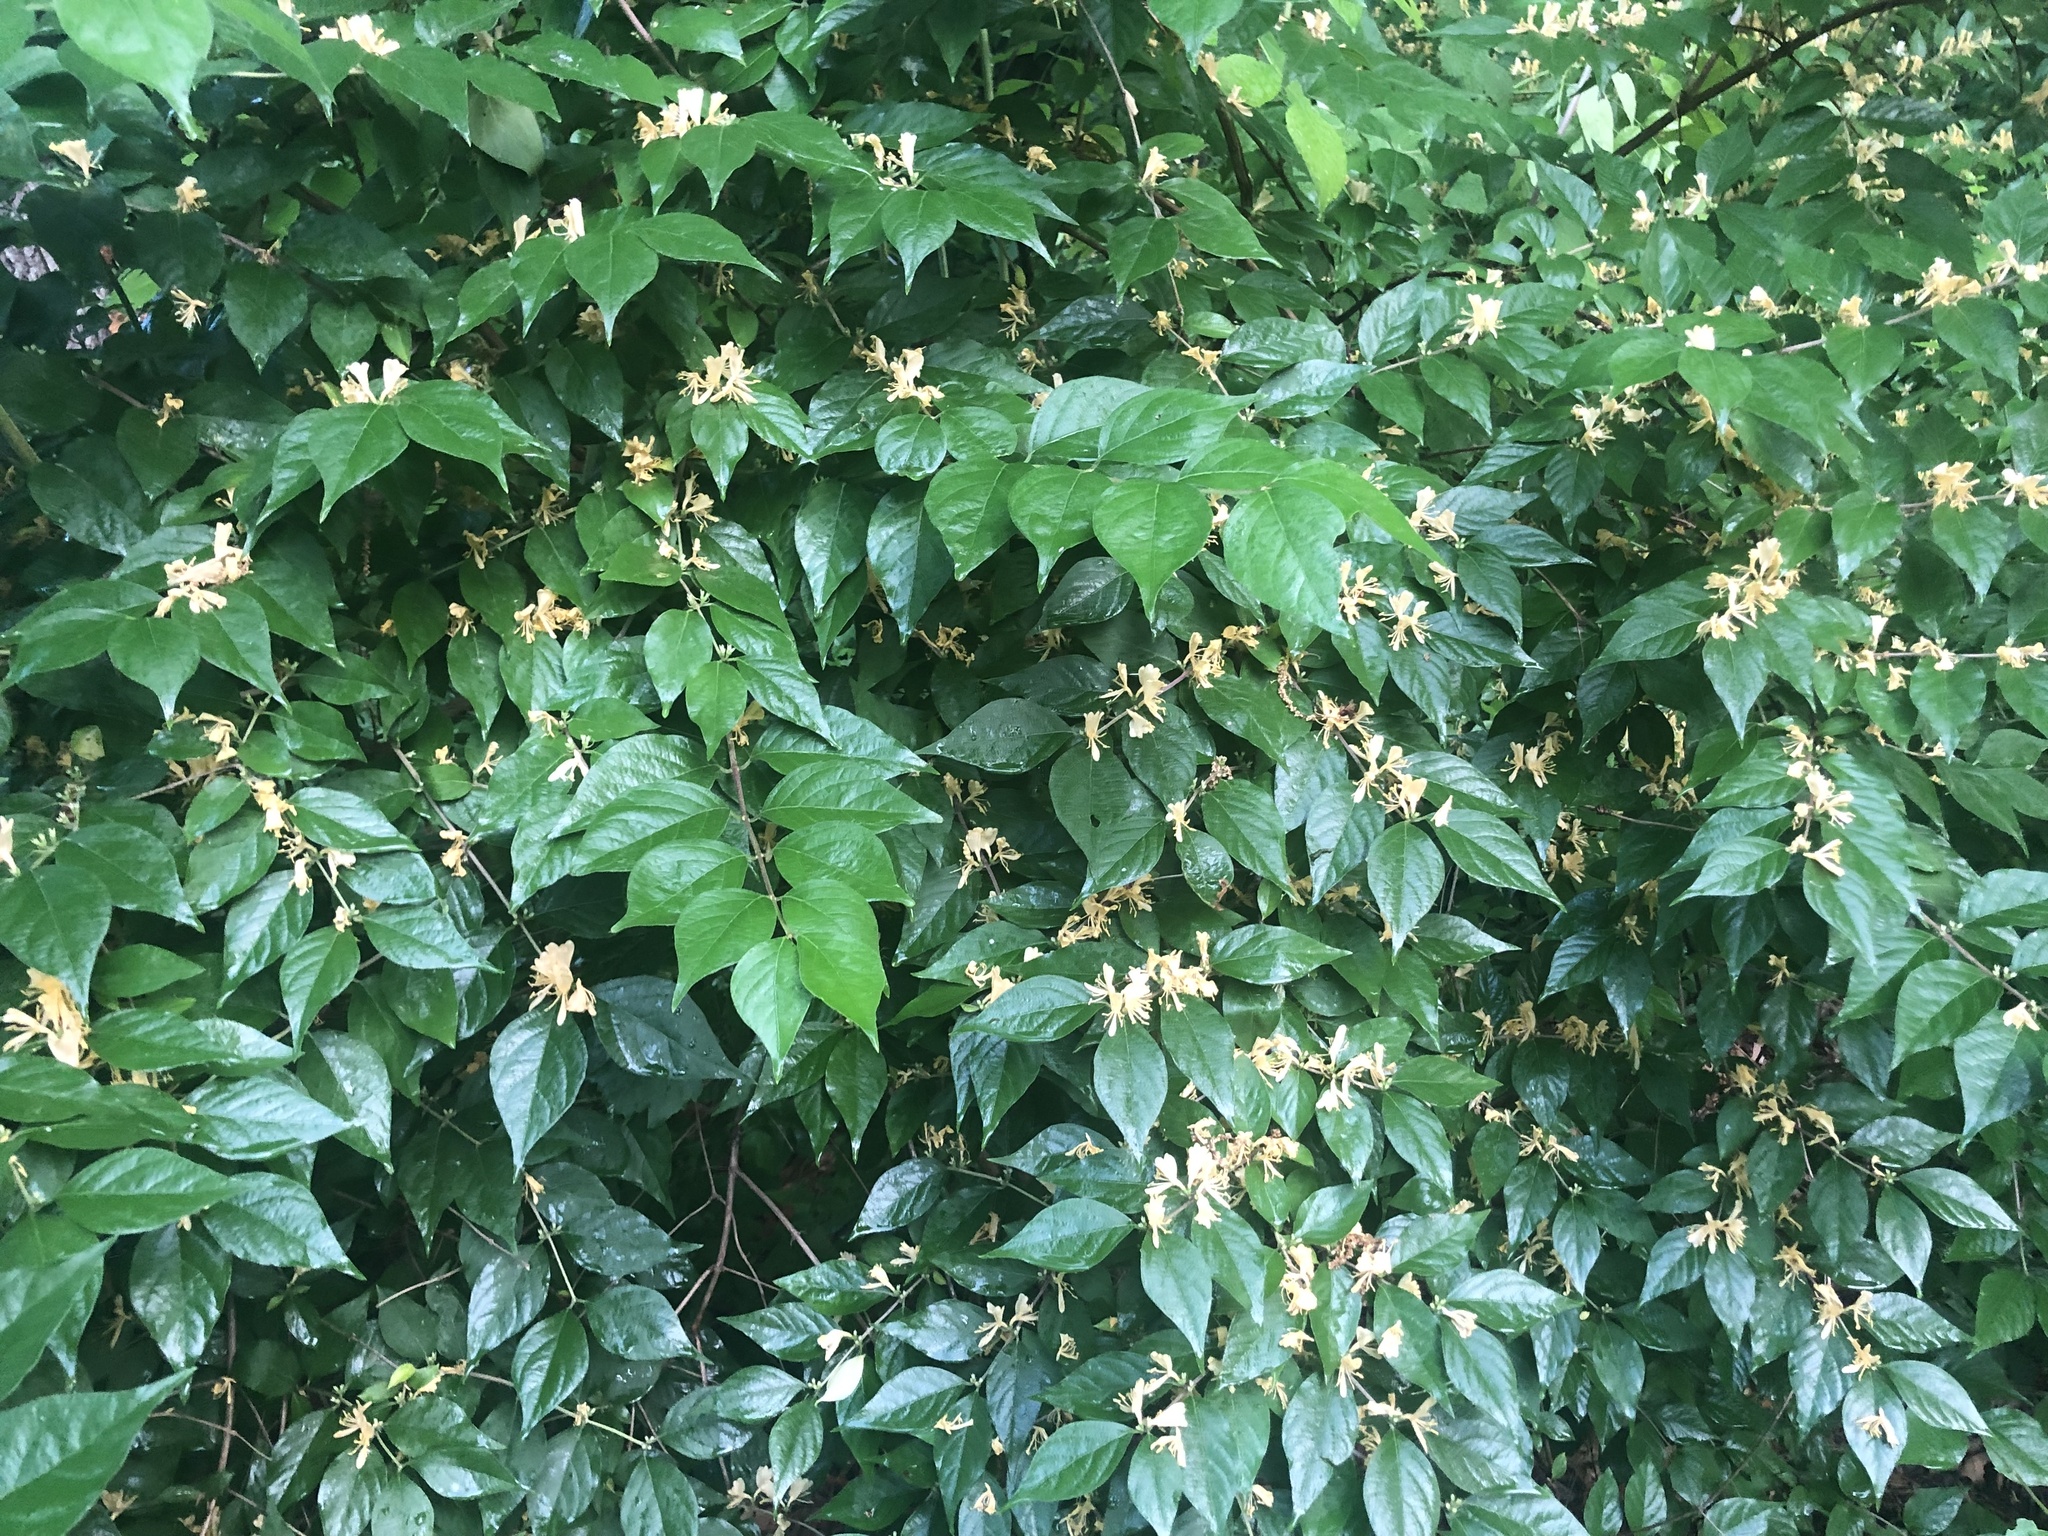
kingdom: Plantae
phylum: Tracheophyta
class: Magnoliopsida
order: Dipsacales
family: Caprifoliaceae
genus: Lonicera
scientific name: Lonicera maackii
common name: Amur honeysuckle
